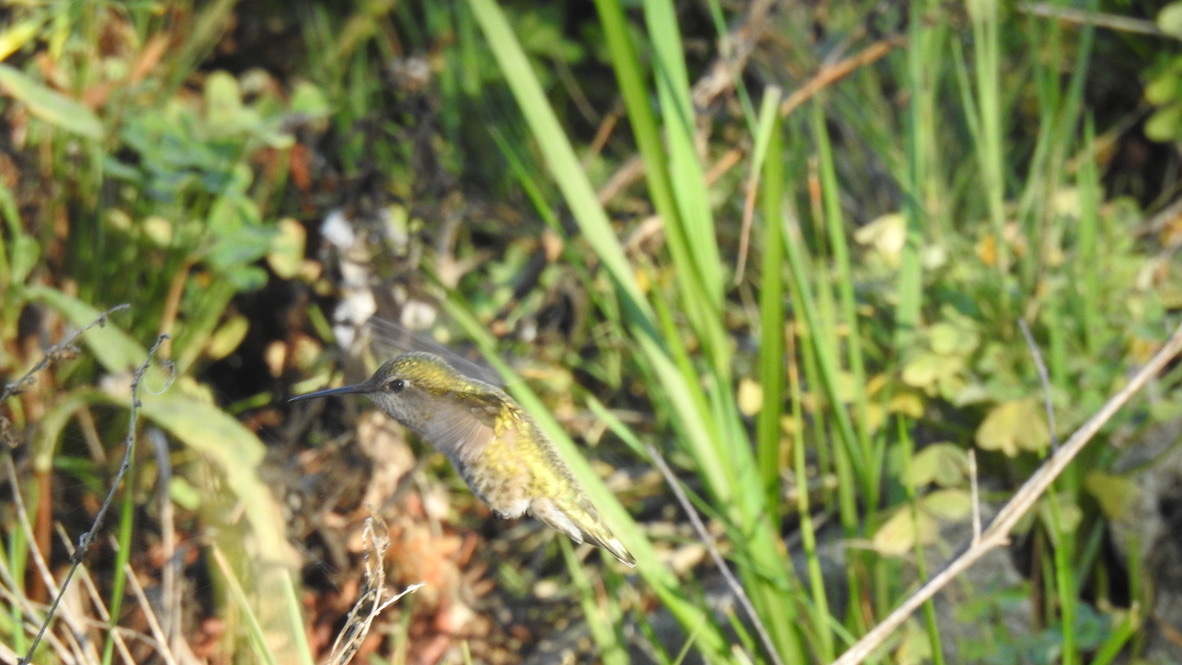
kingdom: Animalia
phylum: Chordata
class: Aves
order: Apodiformes
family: Trochilidae
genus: Calypte
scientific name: Calypte anna
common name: Anna's hummingbird
